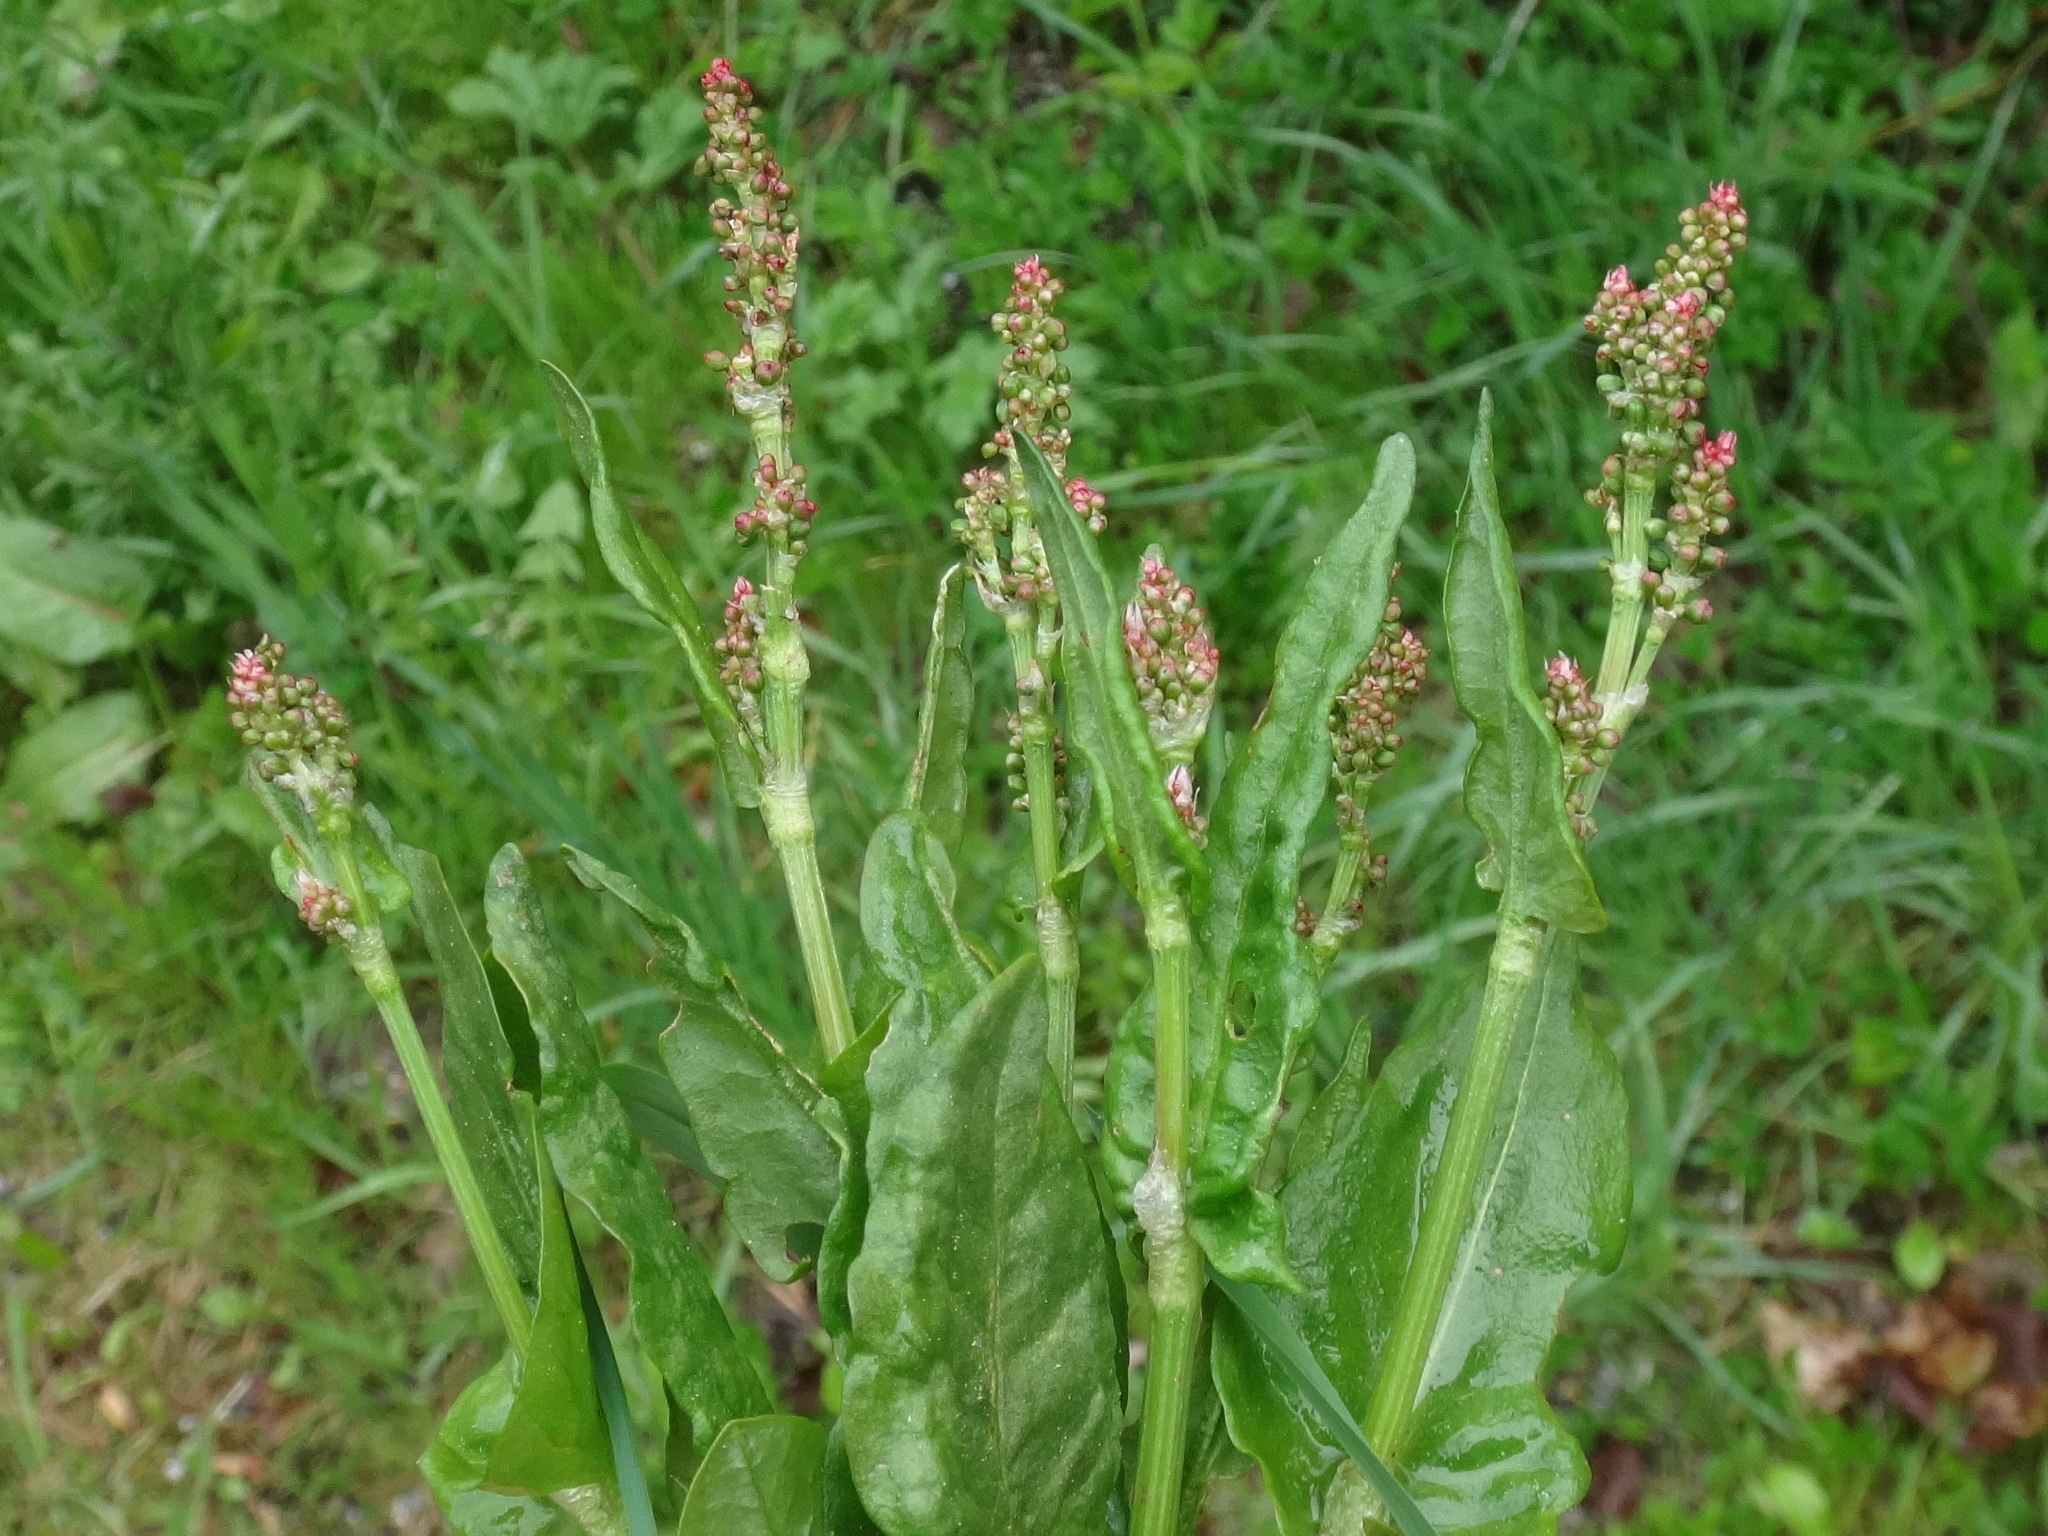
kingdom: Plantae
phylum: Tracheophyta
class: Magnoliopsida
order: Caryophyllales
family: Polygonaceae
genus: Rumex
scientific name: Rumex acetosa
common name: Garden sorrel
